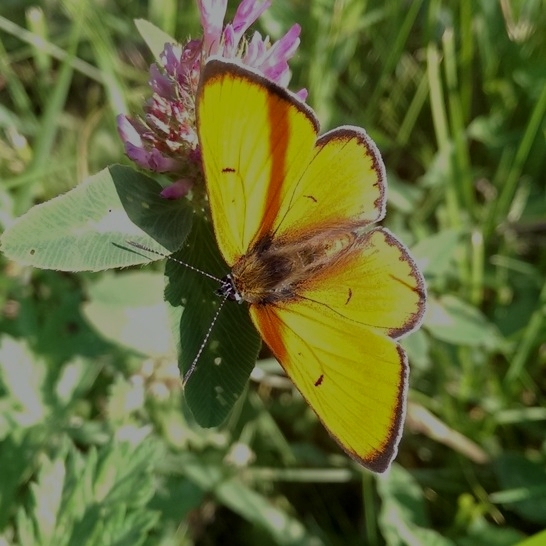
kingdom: Animalia
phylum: Arthropoda
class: Insecta
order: Lepidoptera
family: Lycaenidae
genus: Lycaena
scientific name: Lycaena dispar
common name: Large copper
